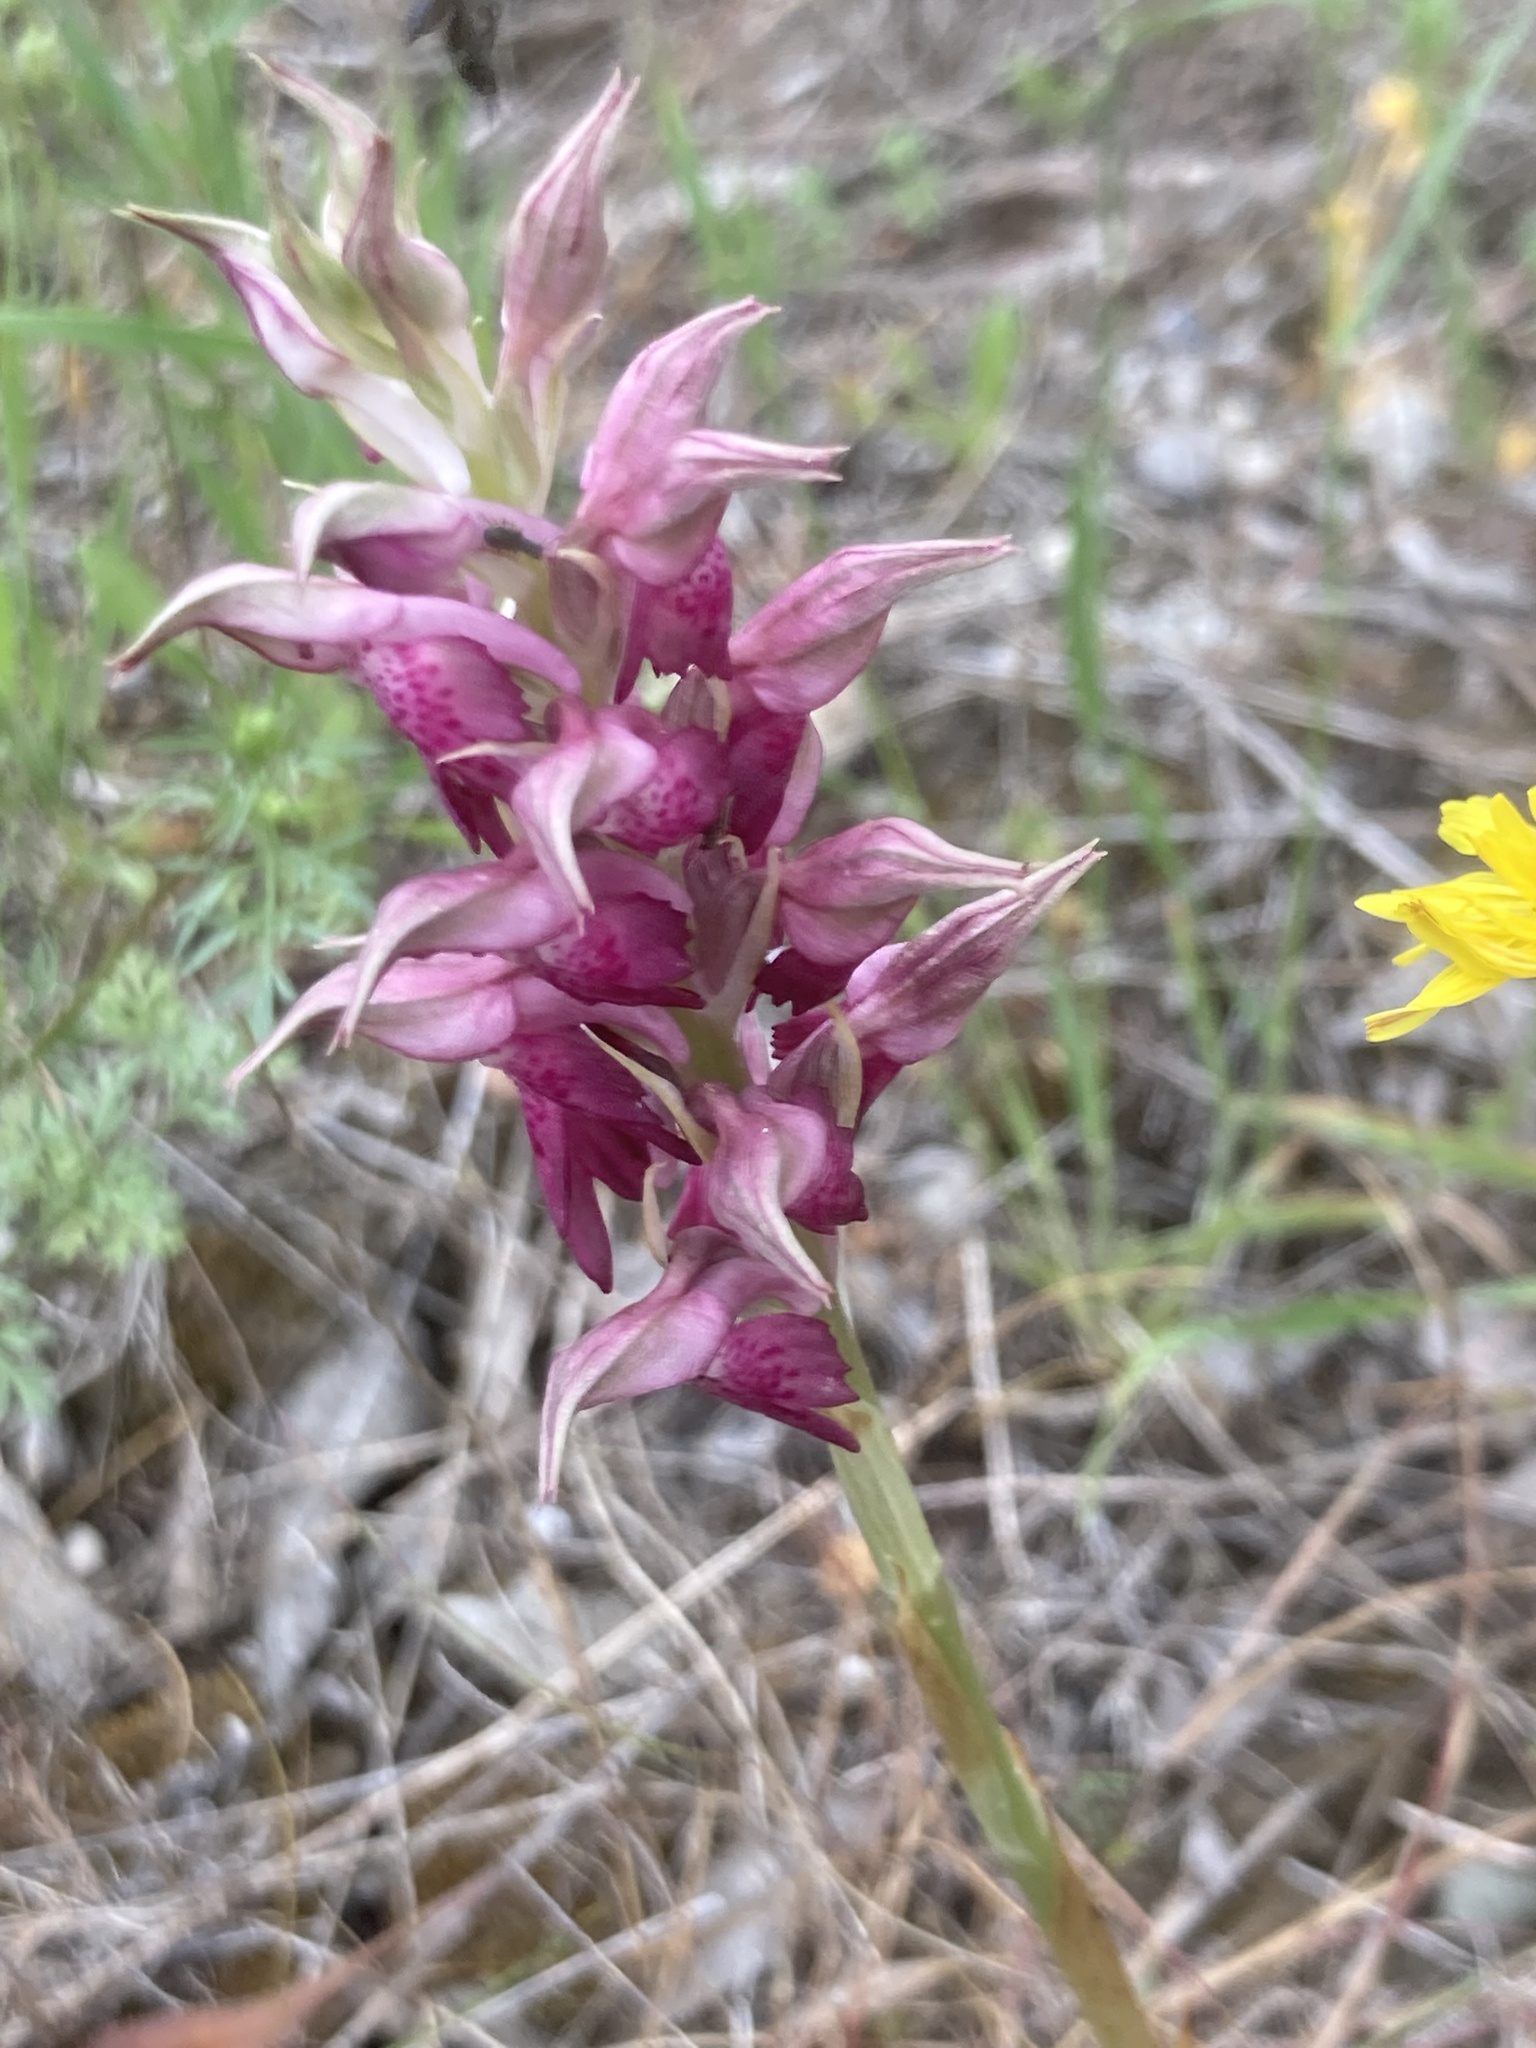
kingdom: Plantae
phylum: Tracheophyta
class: Liliopsida
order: Asparagales
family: Orchidaceae
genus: Orchis
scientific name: Orchis kallithea
